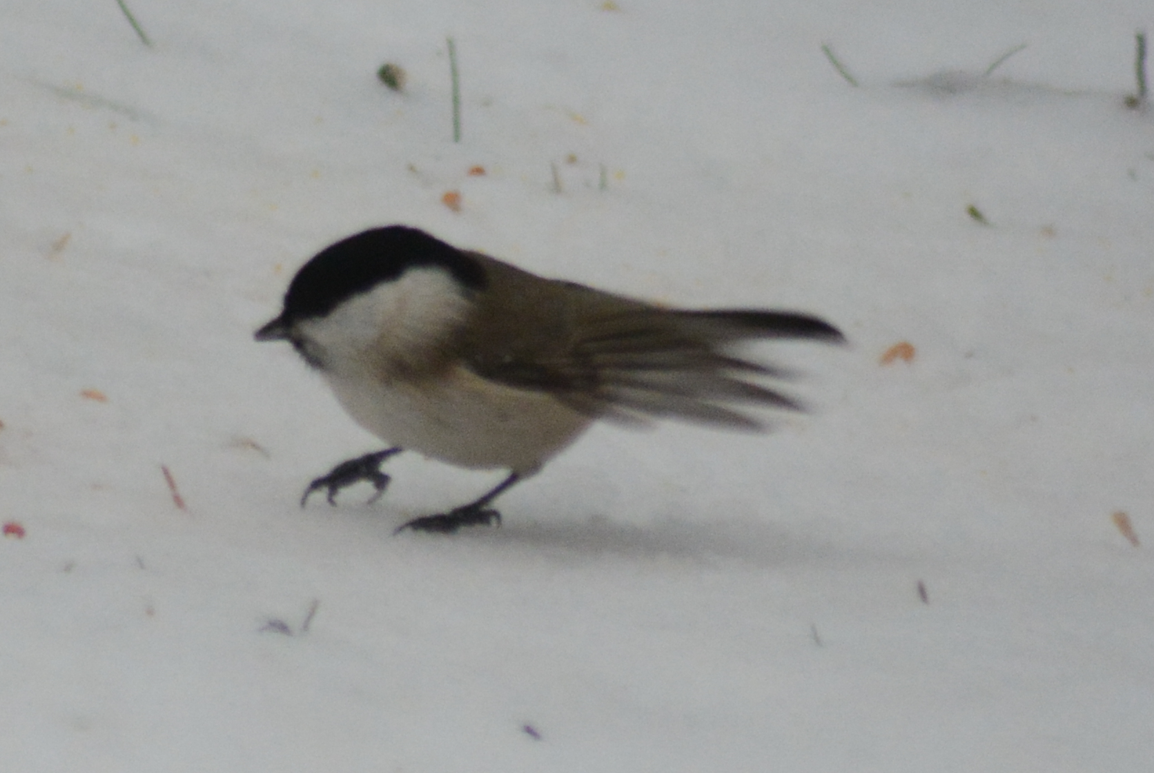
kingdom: Animalia
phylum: Chordata
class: Aves
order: Passeriformes
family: Paridae
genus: Poecile
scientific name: Poecile palustris
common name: Marsh tit
